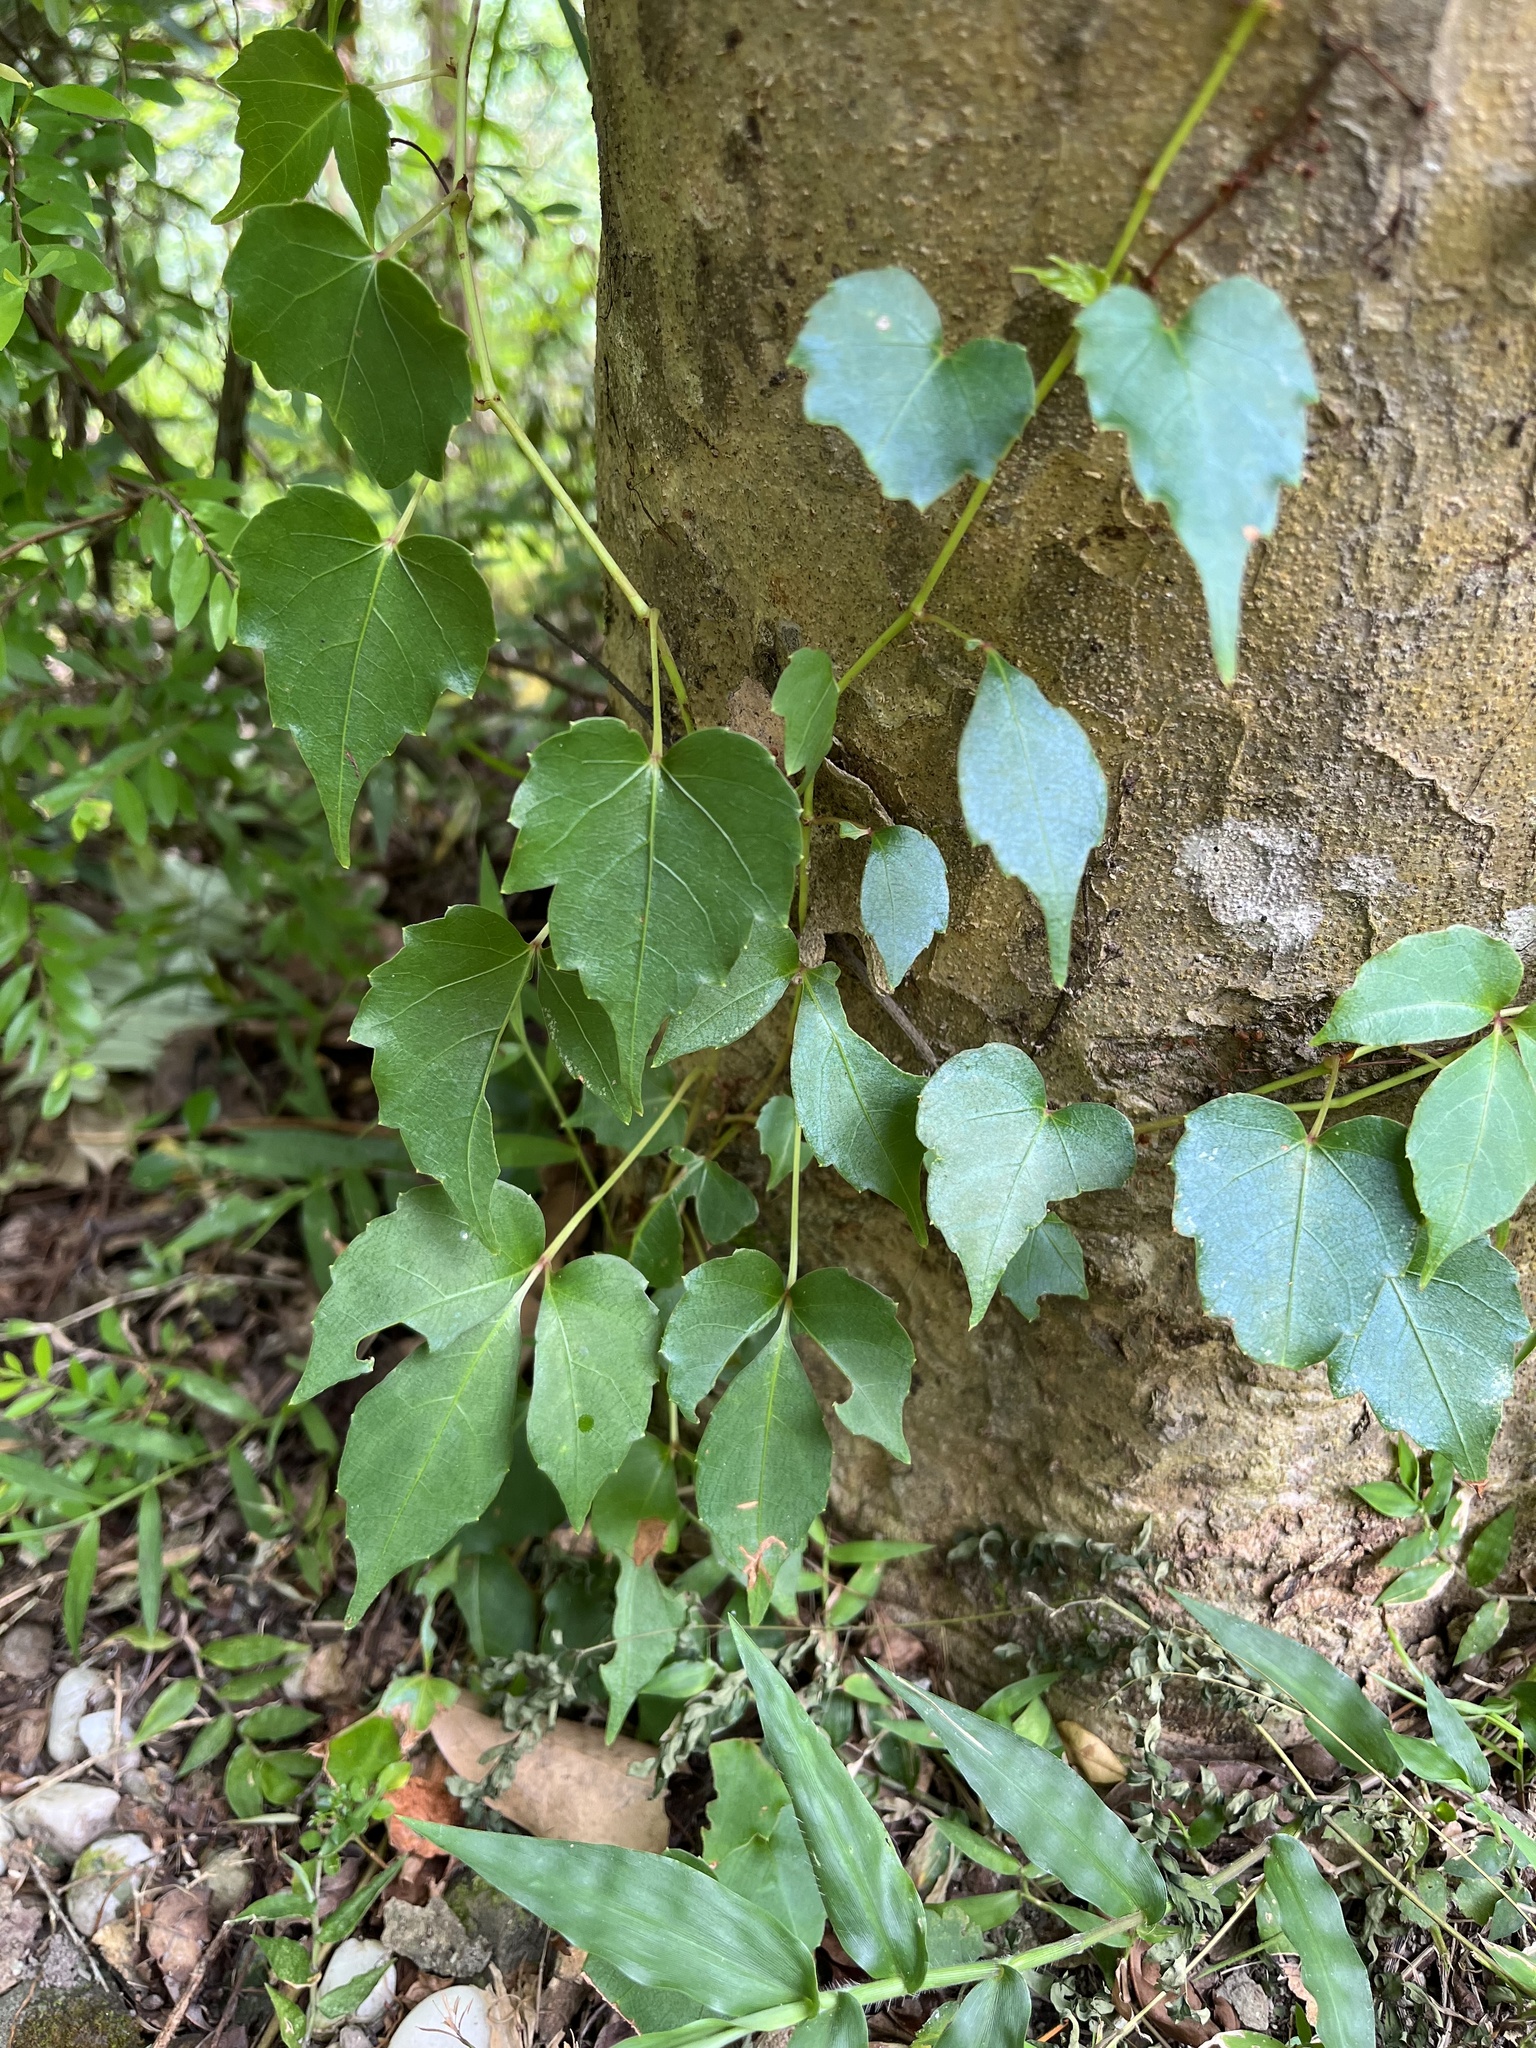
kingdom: Plantae
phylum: Tracheophyta
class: Magnoliopsida
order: Vitales
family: Vitaceae
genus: Parthenocissus
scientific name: Parthenocissus tricuspidata
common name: Boston ivy
